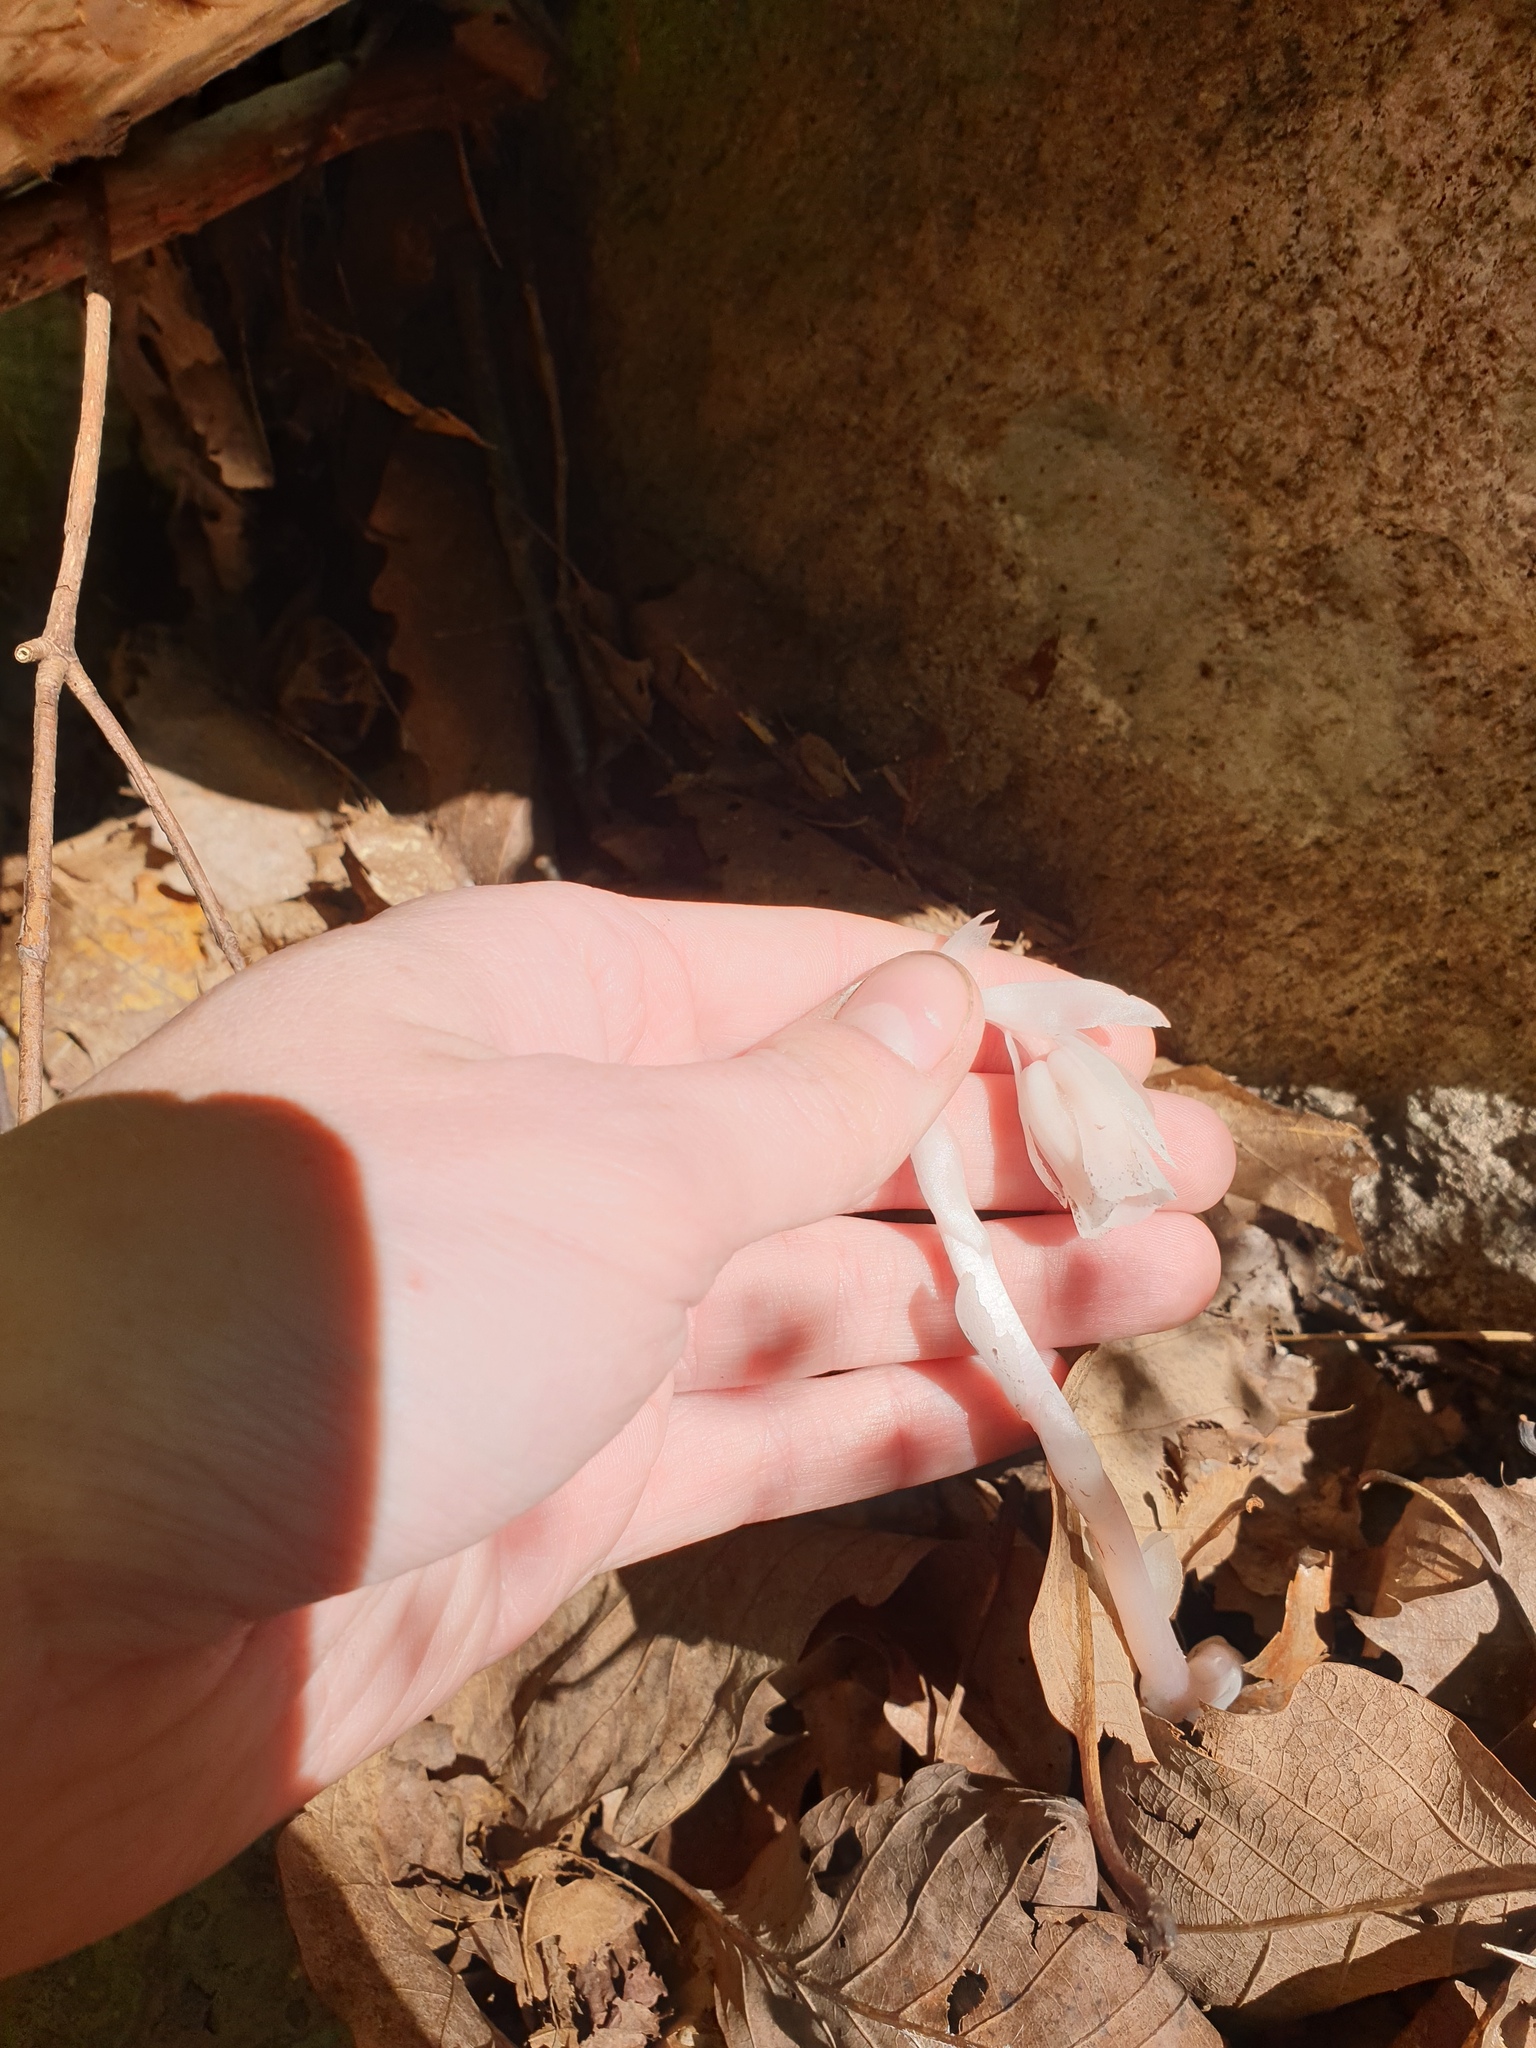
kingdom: Plantae
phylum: Tracheophyta
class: Magnoliopsida
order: Ericales
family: Ericaceae
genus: Monotropa
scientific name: Monotropa uniflora
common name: Convulsion root
